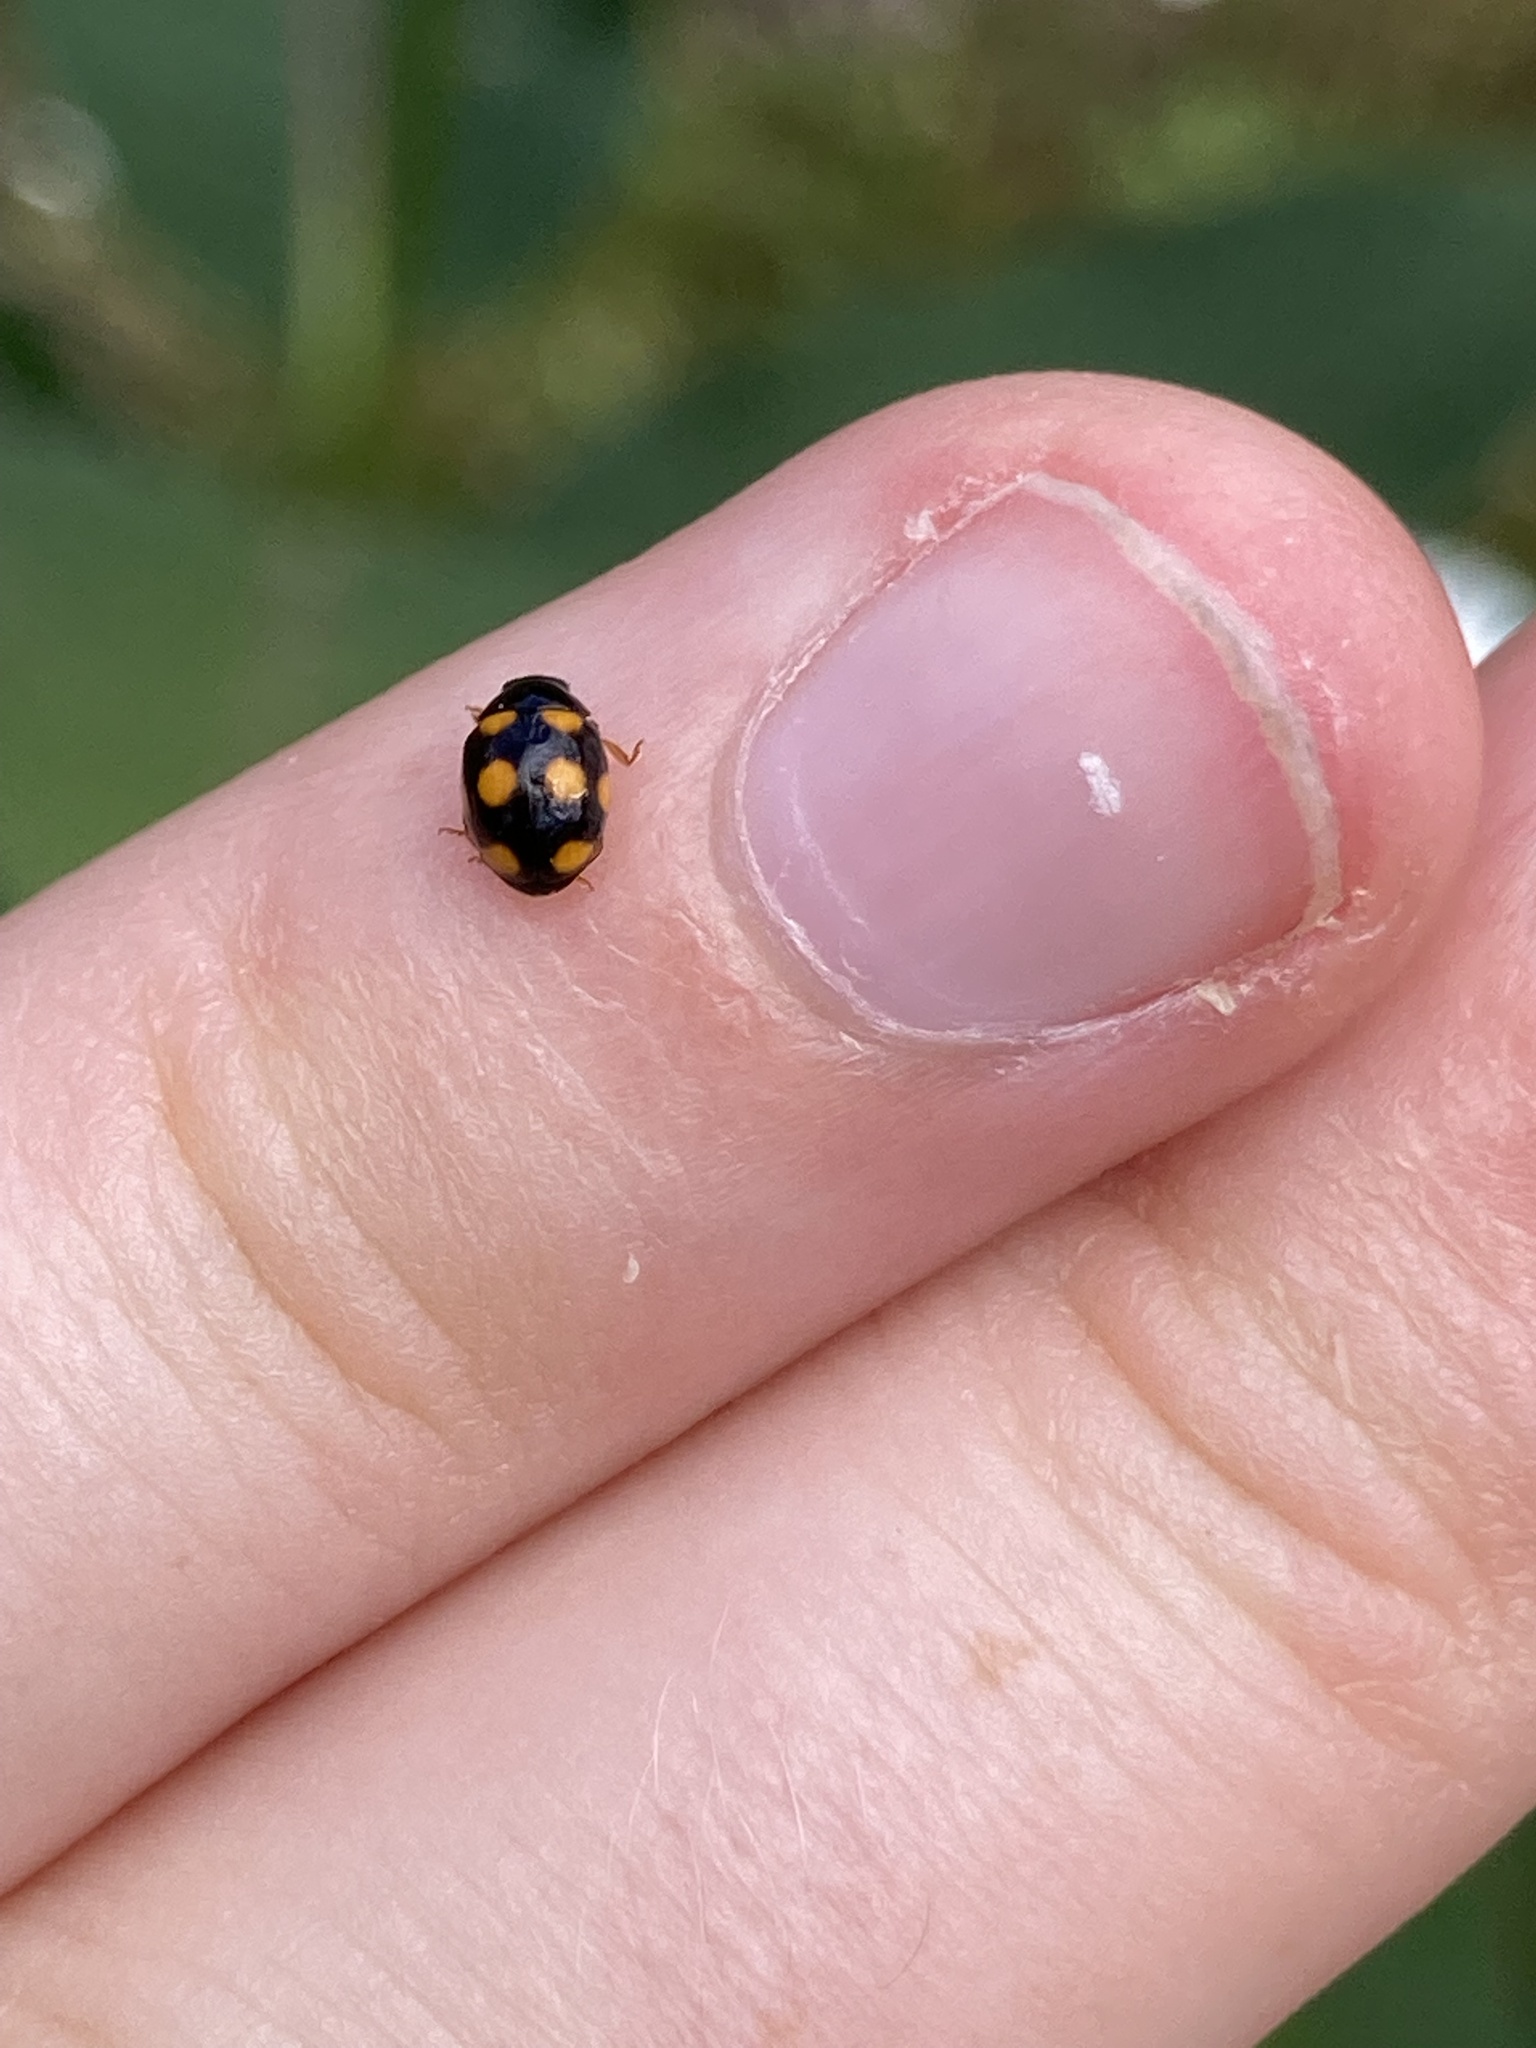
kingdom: Animalia
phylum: Arthropoda
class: Insecta
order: Coleoptera
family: Coccinellidae
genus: Brachiacantha
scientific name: Brachiacantha ursina
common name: Ursine spurleg lady beetle
